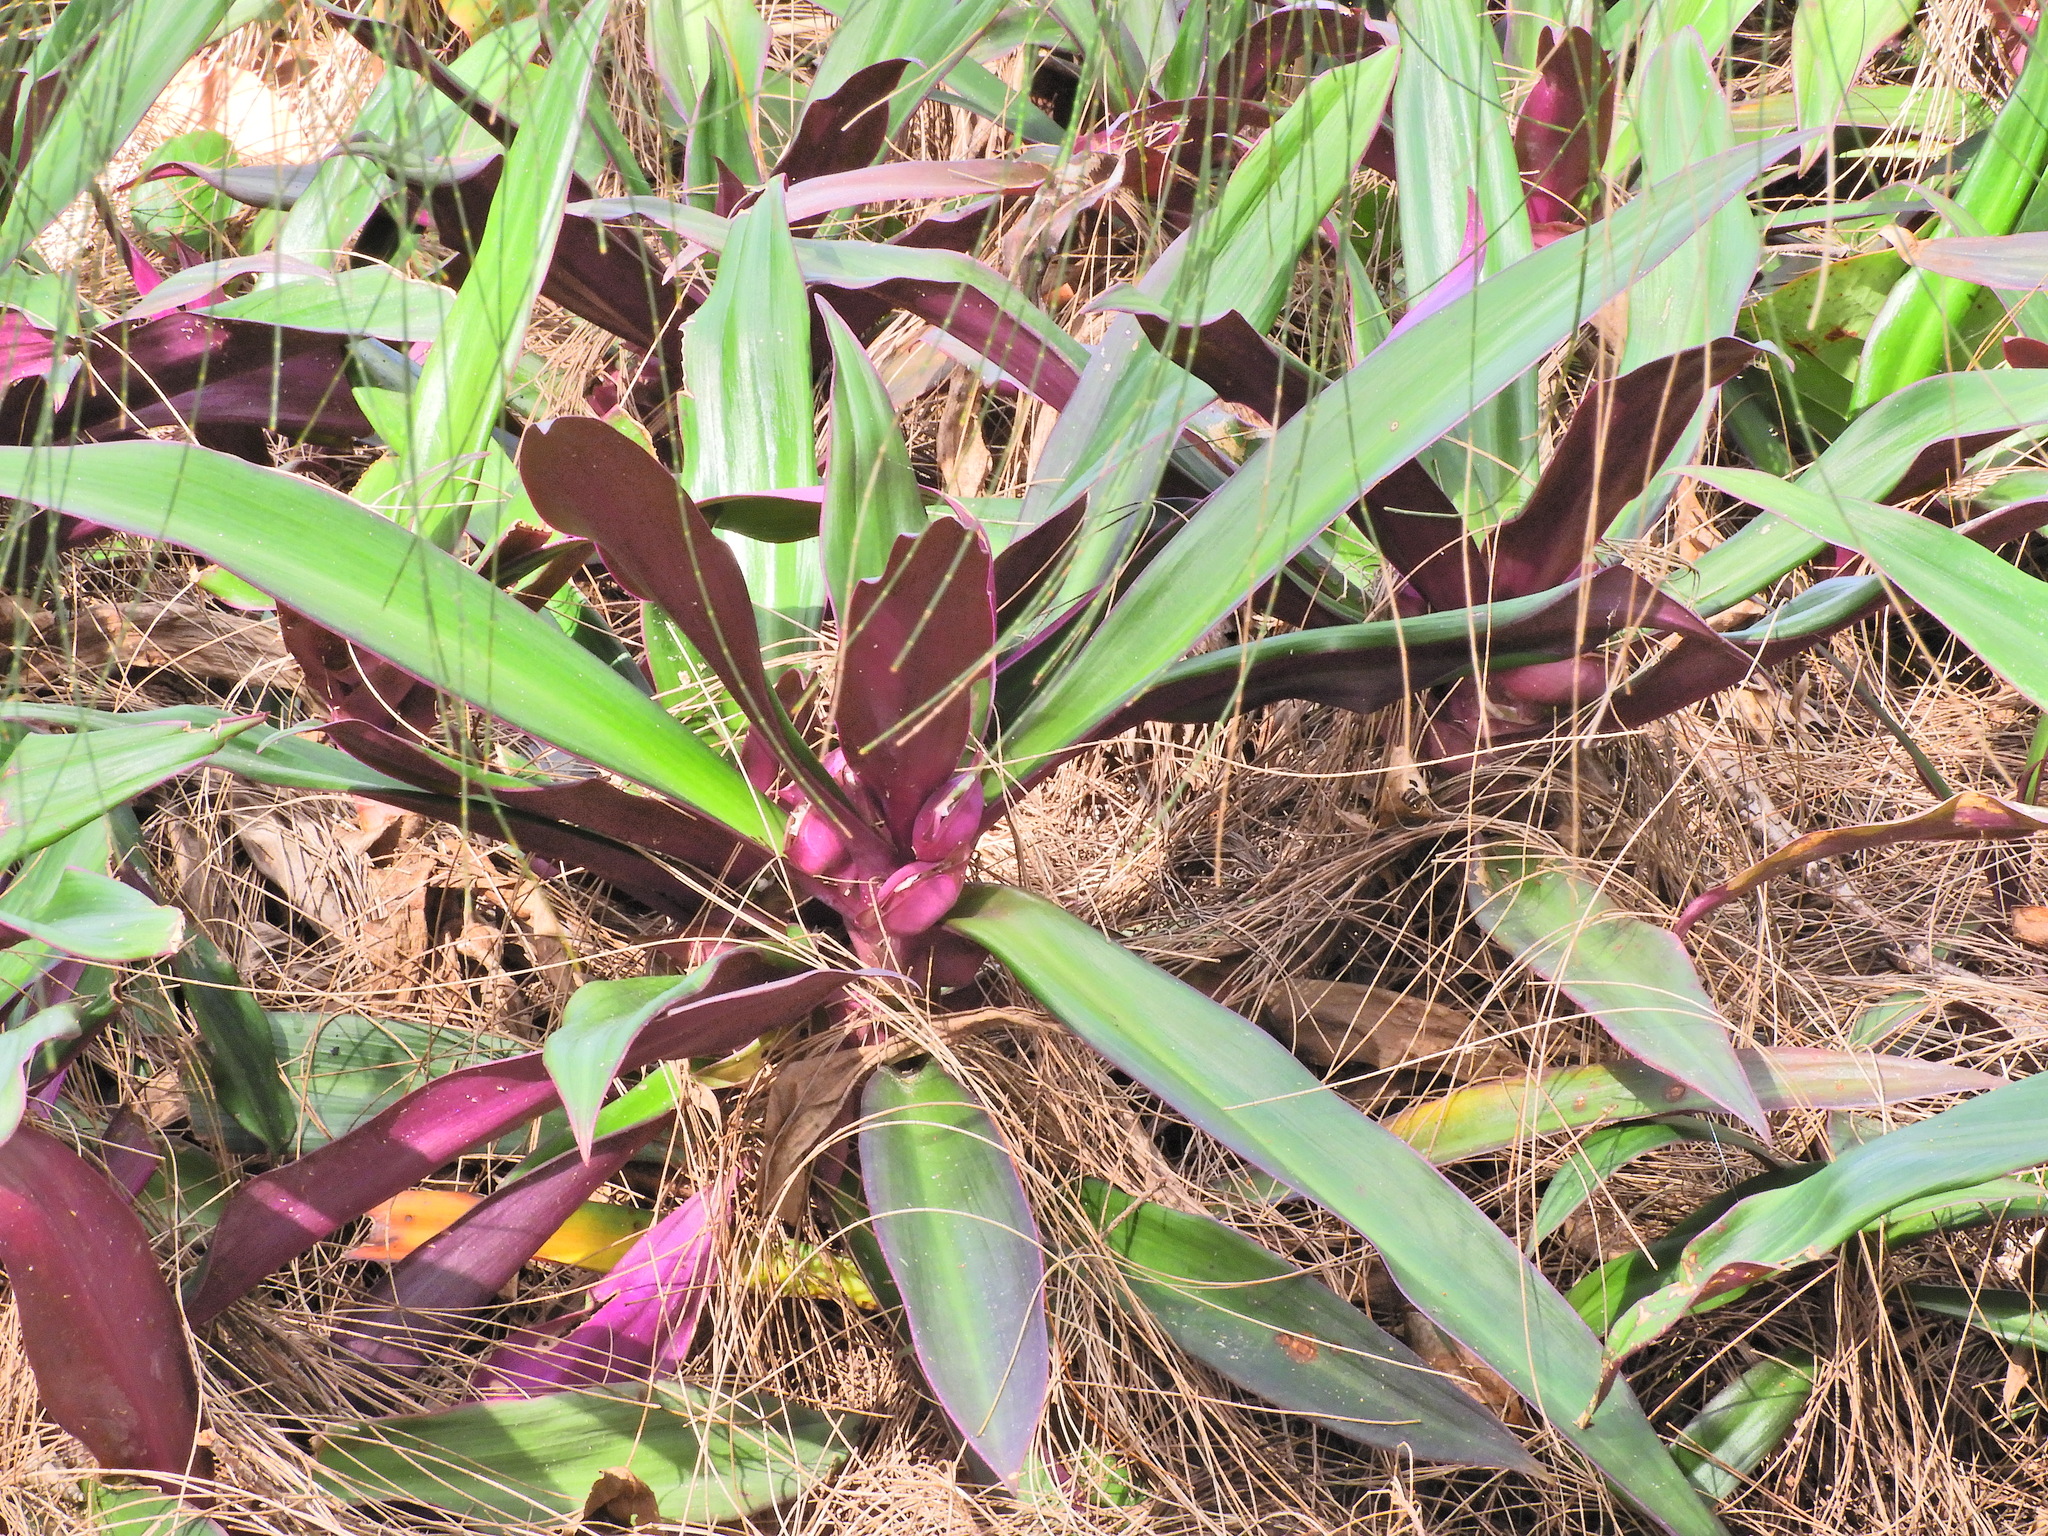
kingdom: Plantae
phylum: Tracheophyta
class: Liliopsida
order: Commelinales
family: Commelinaceae
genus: Tradescantia
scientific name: Tradescantia spathacea
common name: Boatlily
